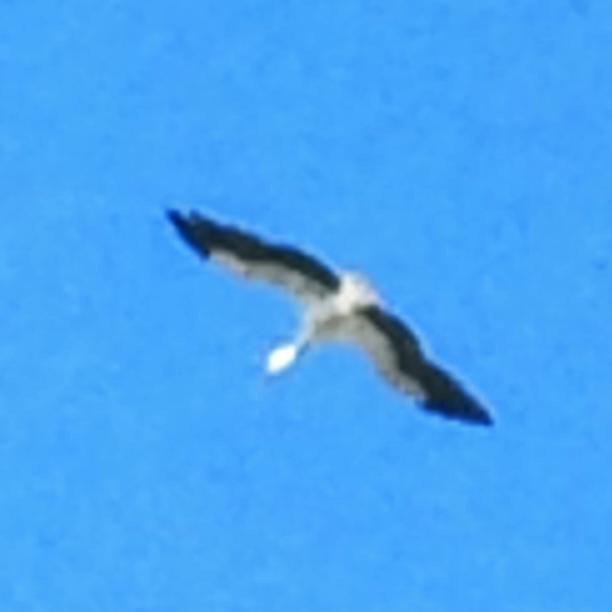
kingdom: Animalia
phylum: Chordata
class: Aves
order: Pelecaniformes
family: Pelecanidae
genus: Pelecanus
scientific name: Pelecanus erythrorhynchos
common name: American white pelican
